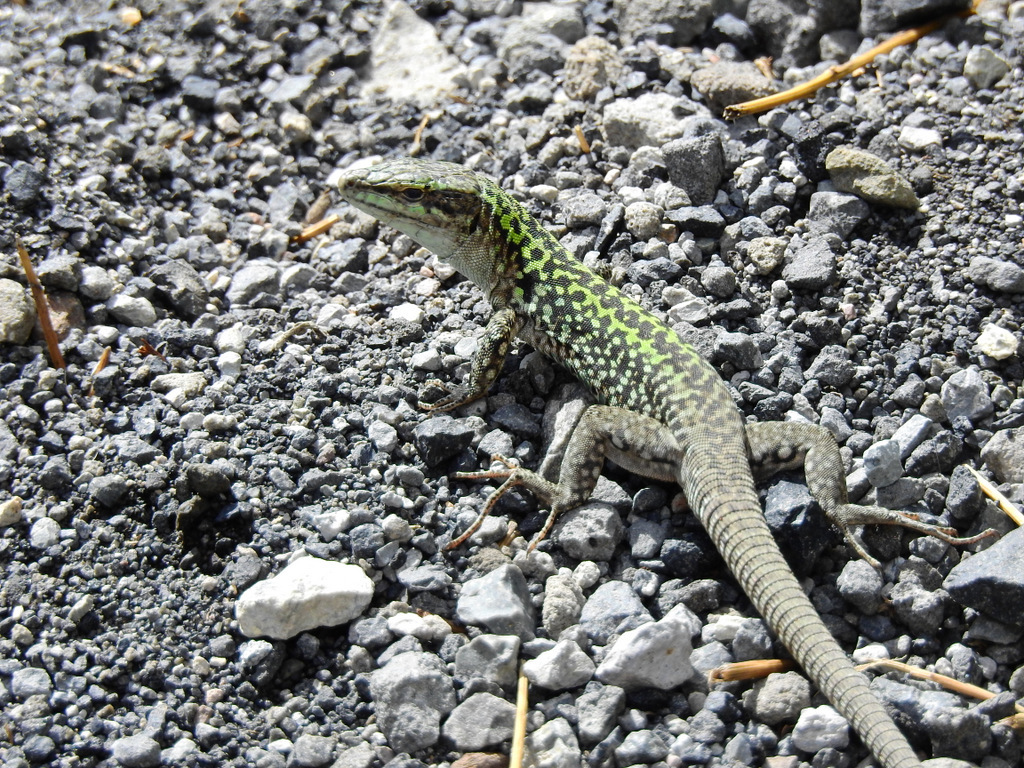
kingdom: Animalia
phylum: Chordata
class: Squamata
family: Lacertidae
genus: Podarcis
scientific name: Podarcis siculus
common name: Italian wall lizard
